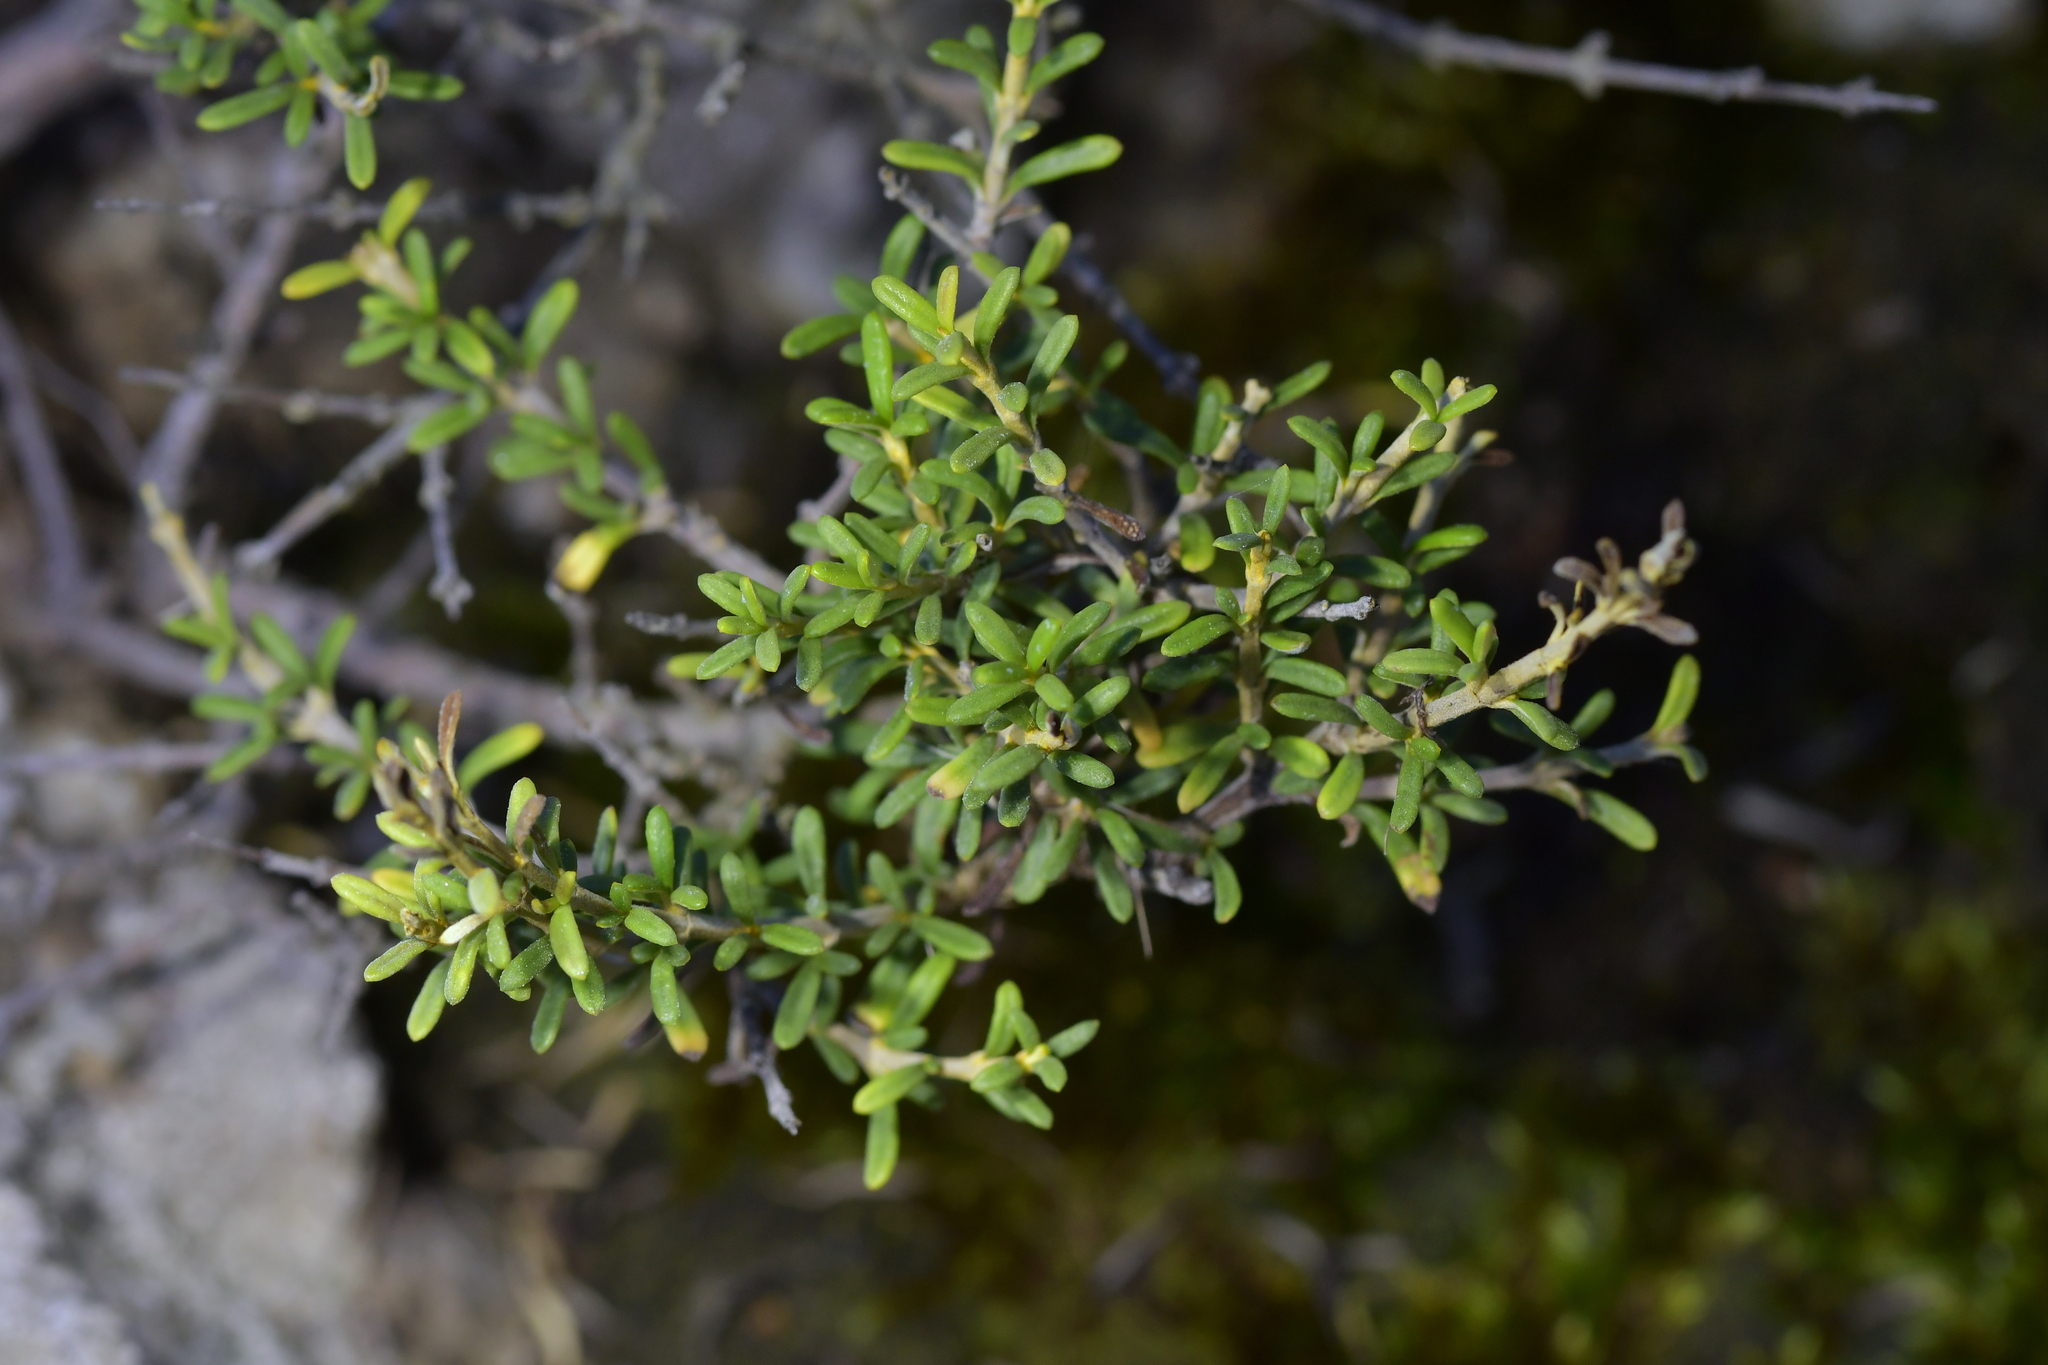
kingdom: Plantae
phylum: Tracheophyta
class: Magnoliopsida
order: Asterales
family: Asteraceae
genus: Olearia
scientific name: Olearia solandri
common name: Coastal daisybush
